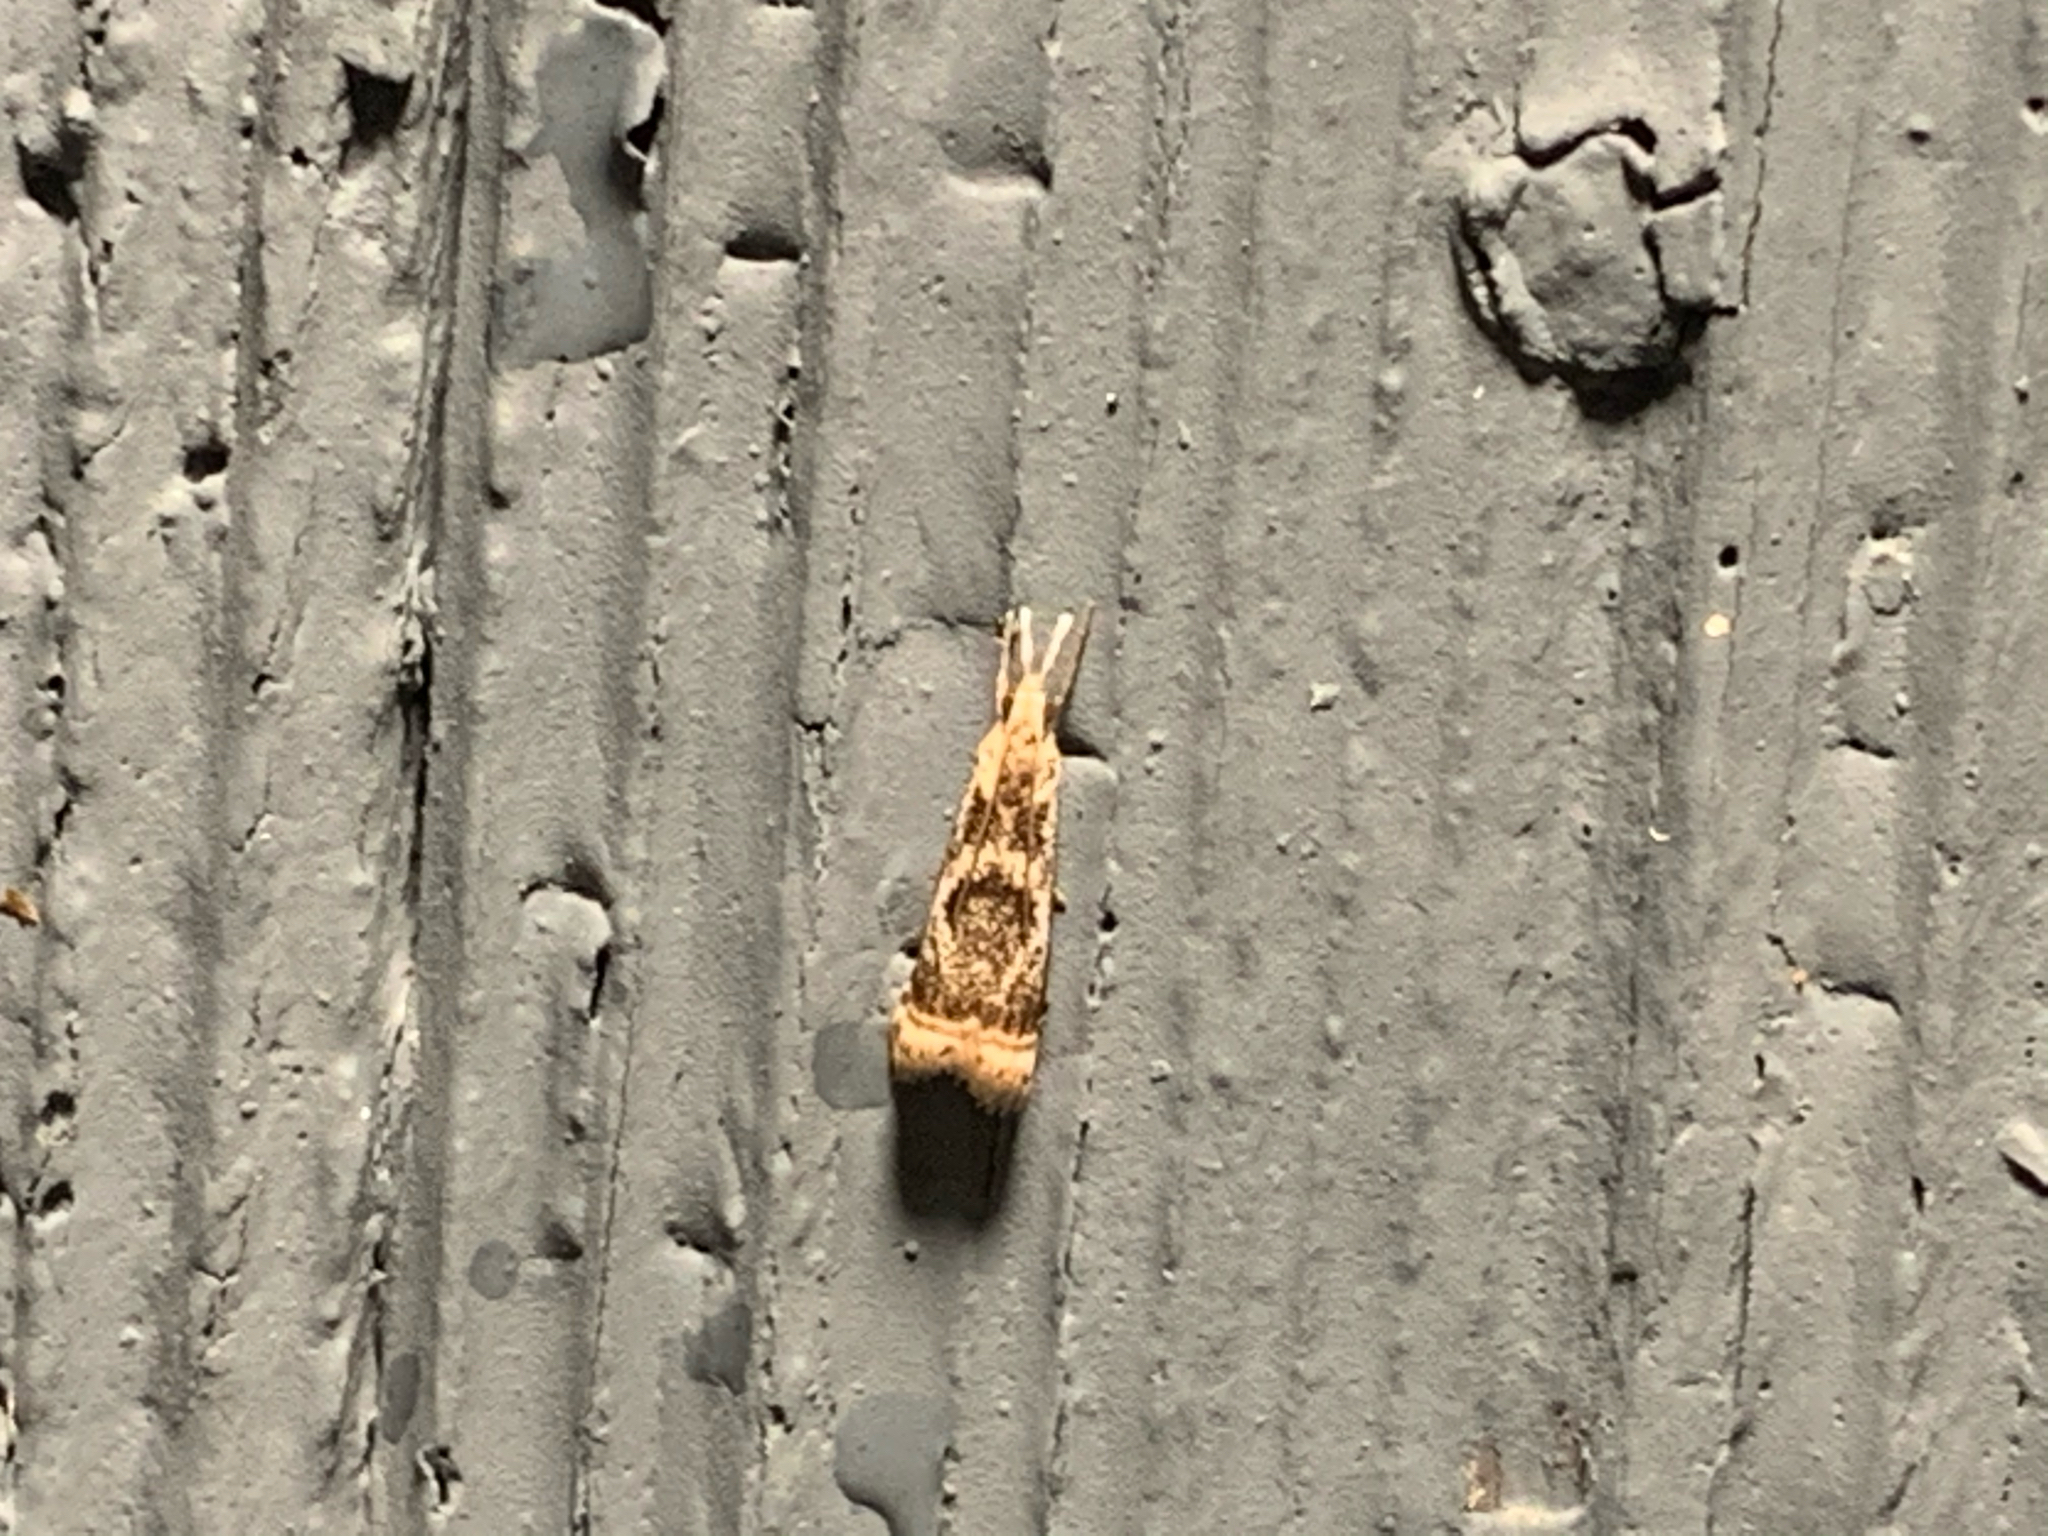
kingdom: Animalia
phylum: Arthropoda
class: Insecta
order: Lepidoptera
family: Crambidae
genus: Microcrambus
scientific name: Microcrambus elegans
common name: Elegant grass-veneer
